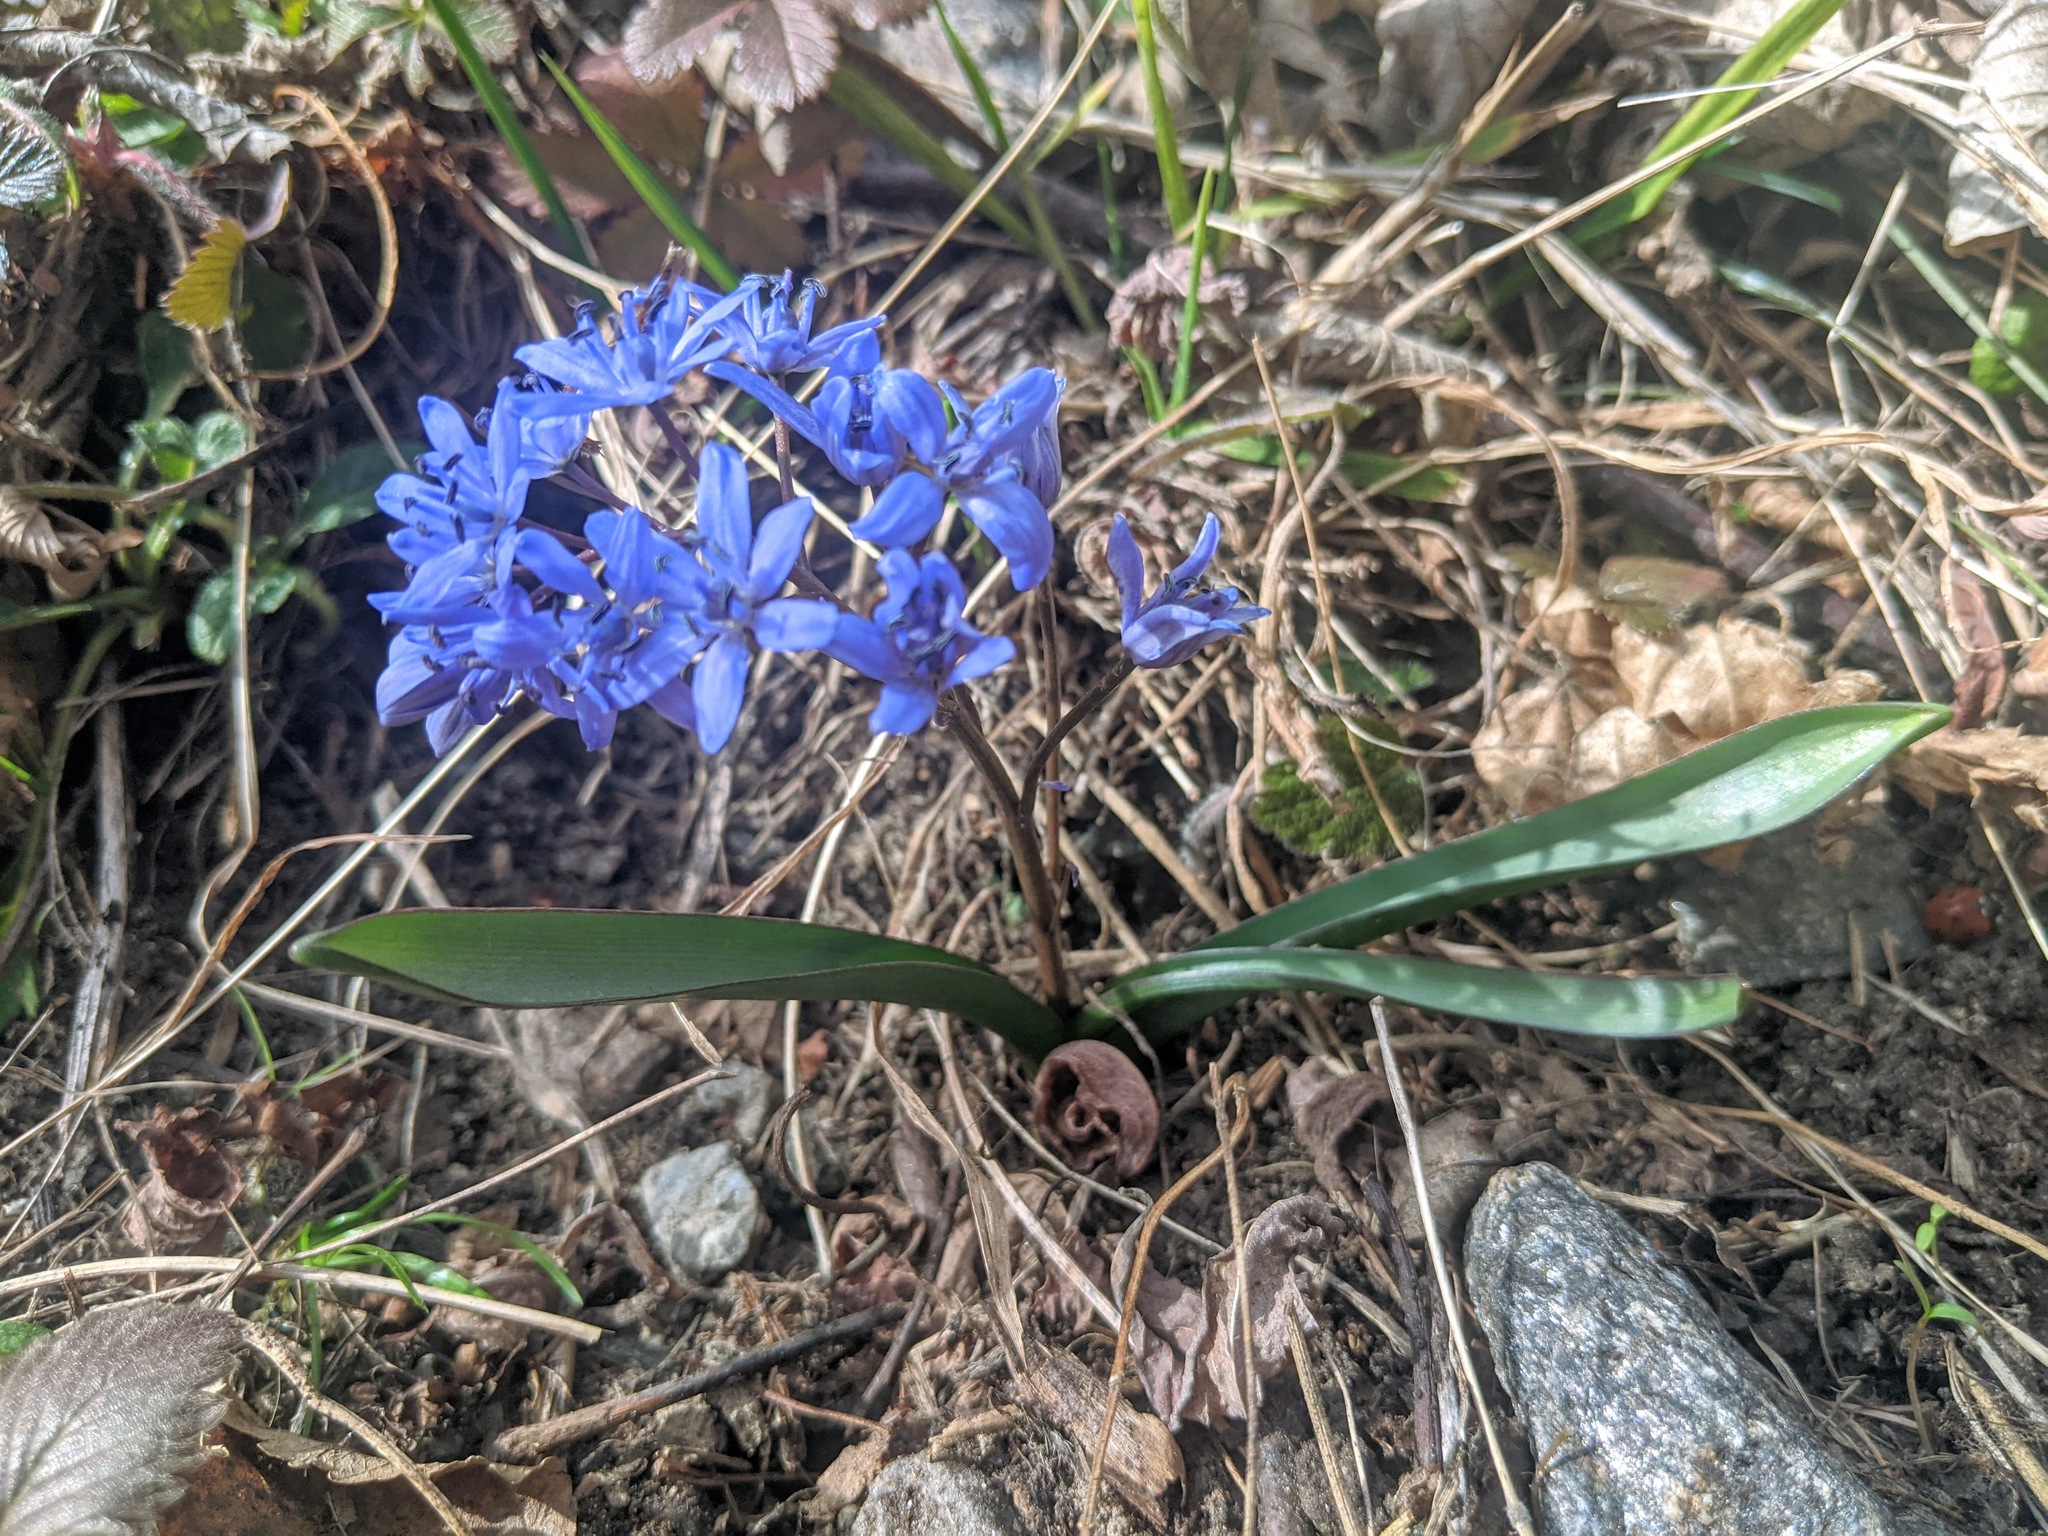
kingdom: Plantae
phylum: Tracheophyta
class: Liliopsida
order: Asparagales
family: Asparagaceae
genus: Scilla
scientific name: Scilla bifolia
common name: Alpine squill
